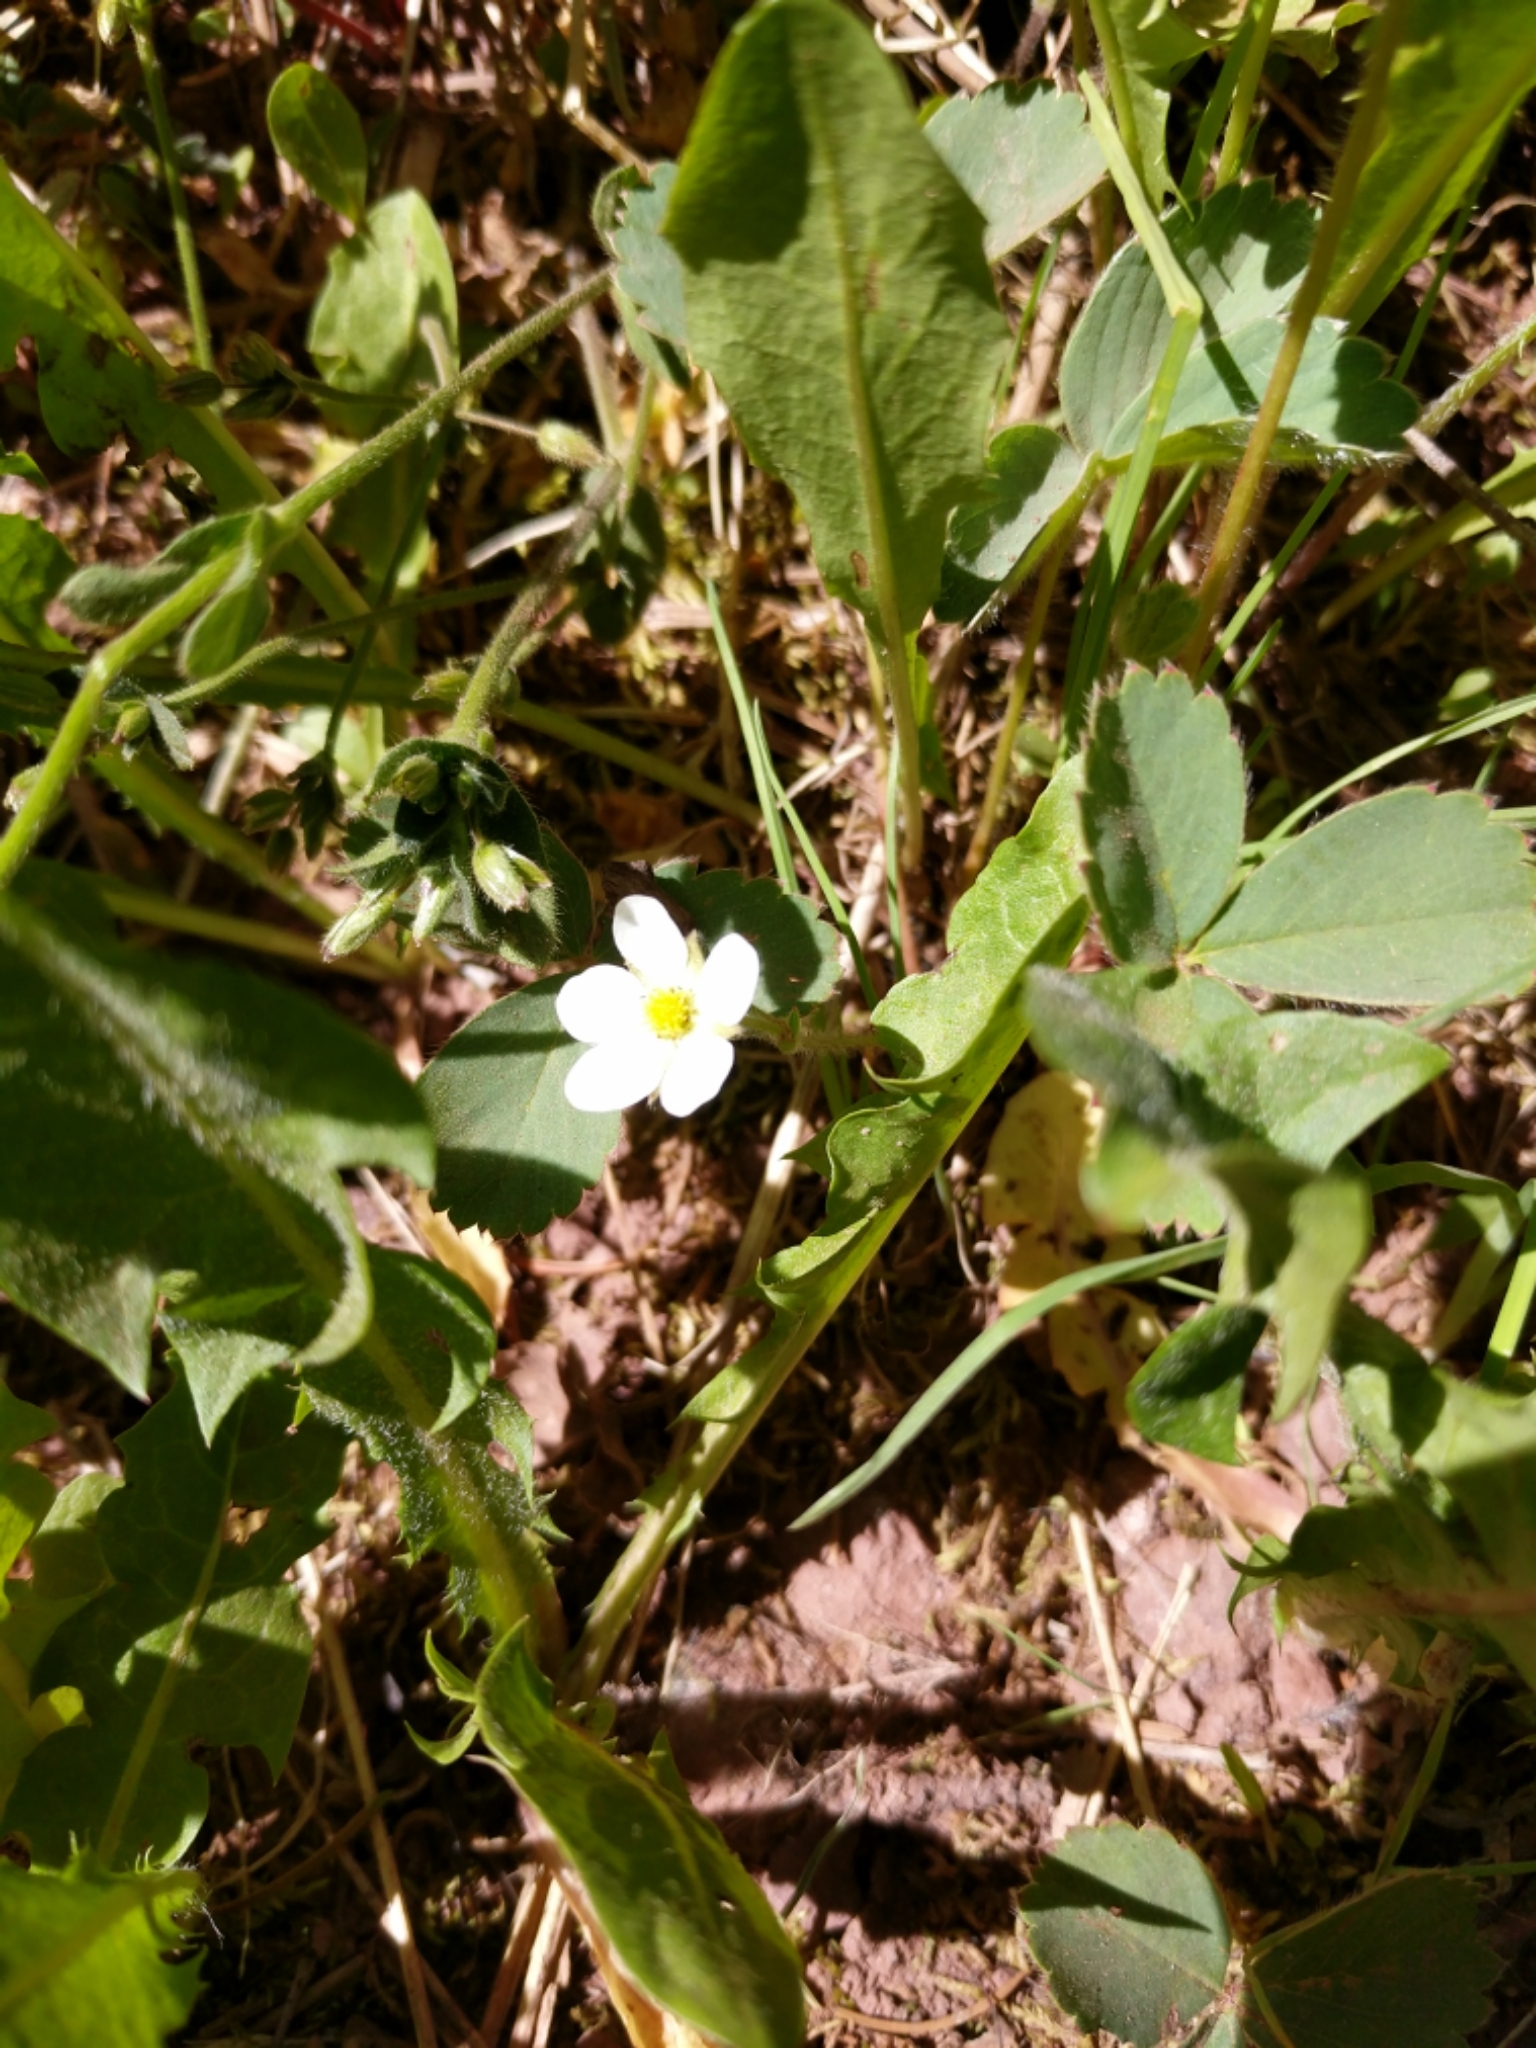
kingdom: Plantae
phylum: Tracheophyta
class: Magnoliopsida
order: Rosales
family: Rosaceae
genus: Fragaria
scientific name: Fragaria virginiana
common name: Thickleaved wild strawberry
